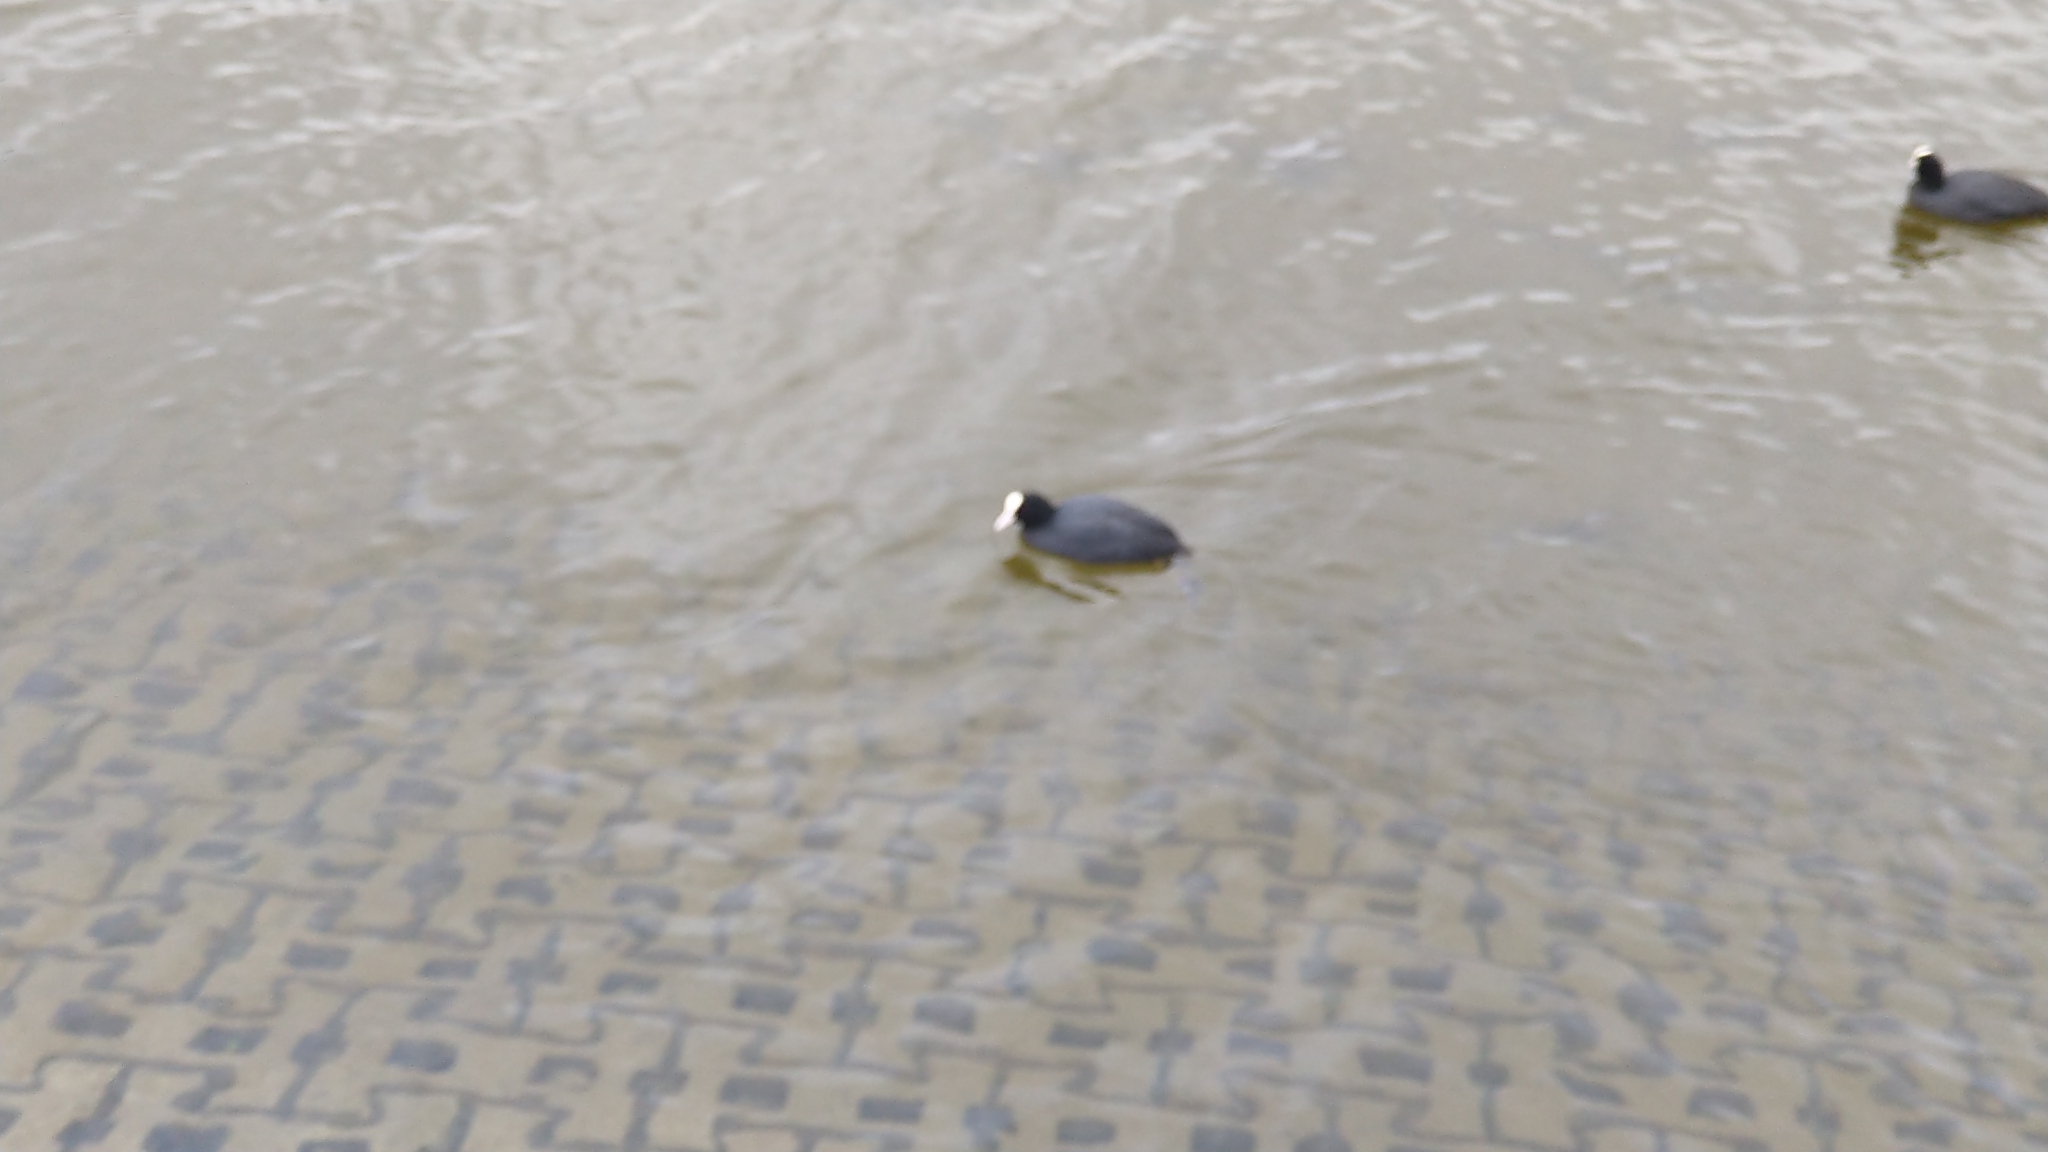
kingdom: Animalia
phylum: Chordata
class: Aves
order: Gruiformes
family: Rallidae
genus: Fulica
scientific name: Fulica atra
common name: Eurasian coot
